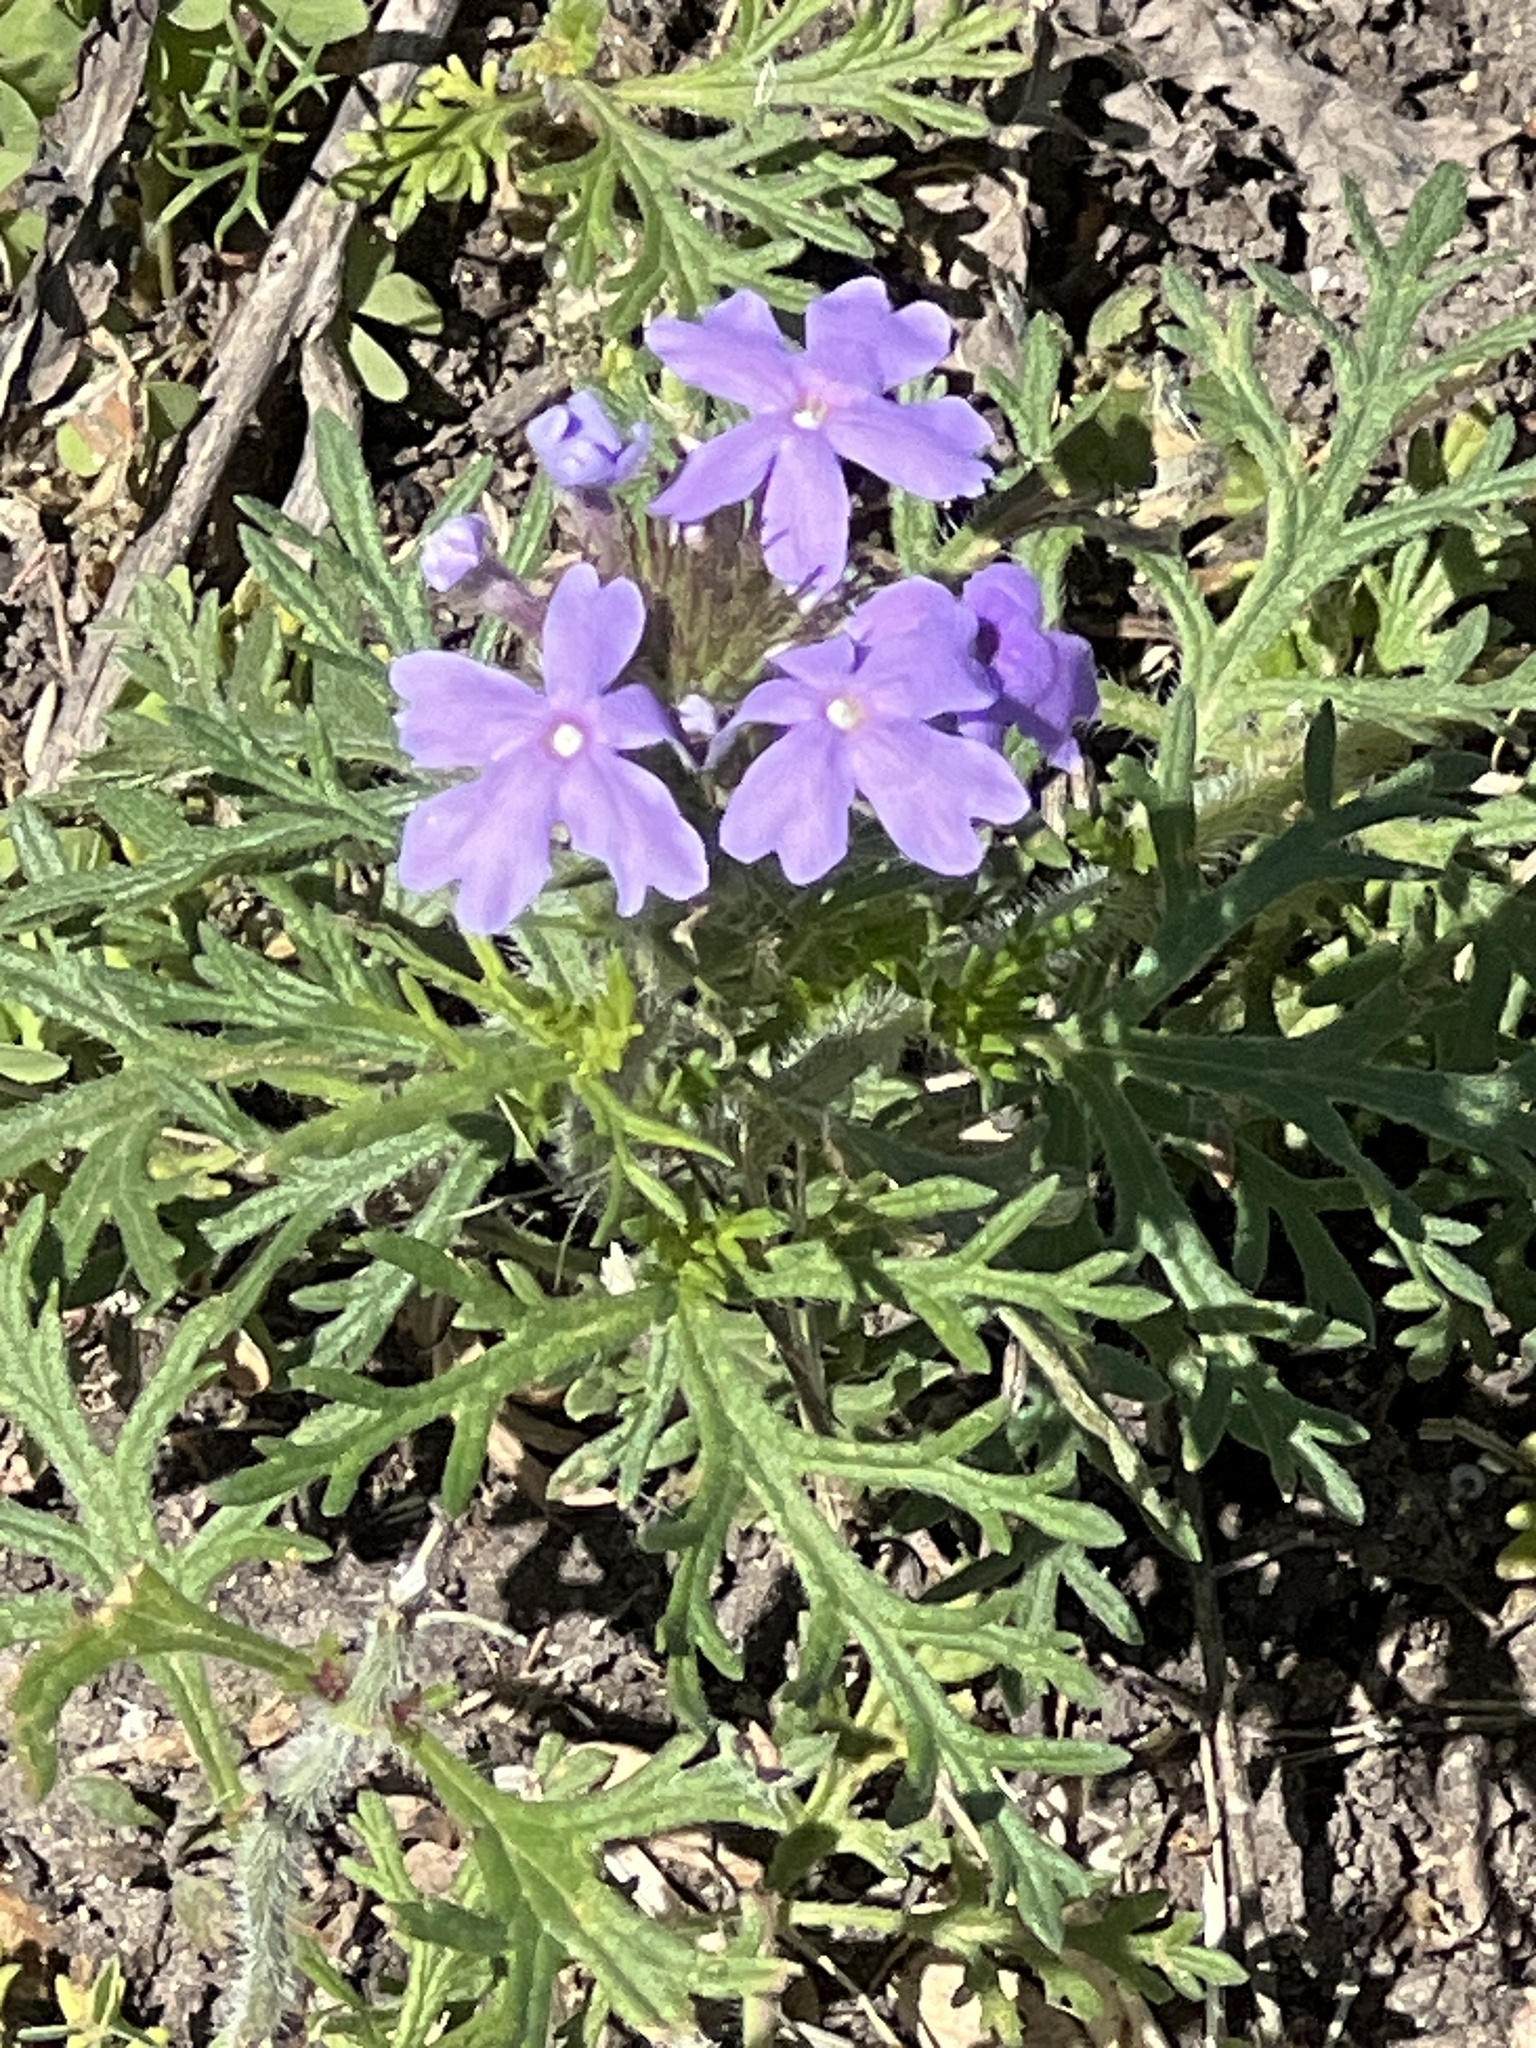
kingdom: Plantae
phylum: Tracheophyta
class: Magnoliopsida
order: Lamiales
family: Verbenaceae
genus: Verbena
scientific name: Verbena bipinnatifida
